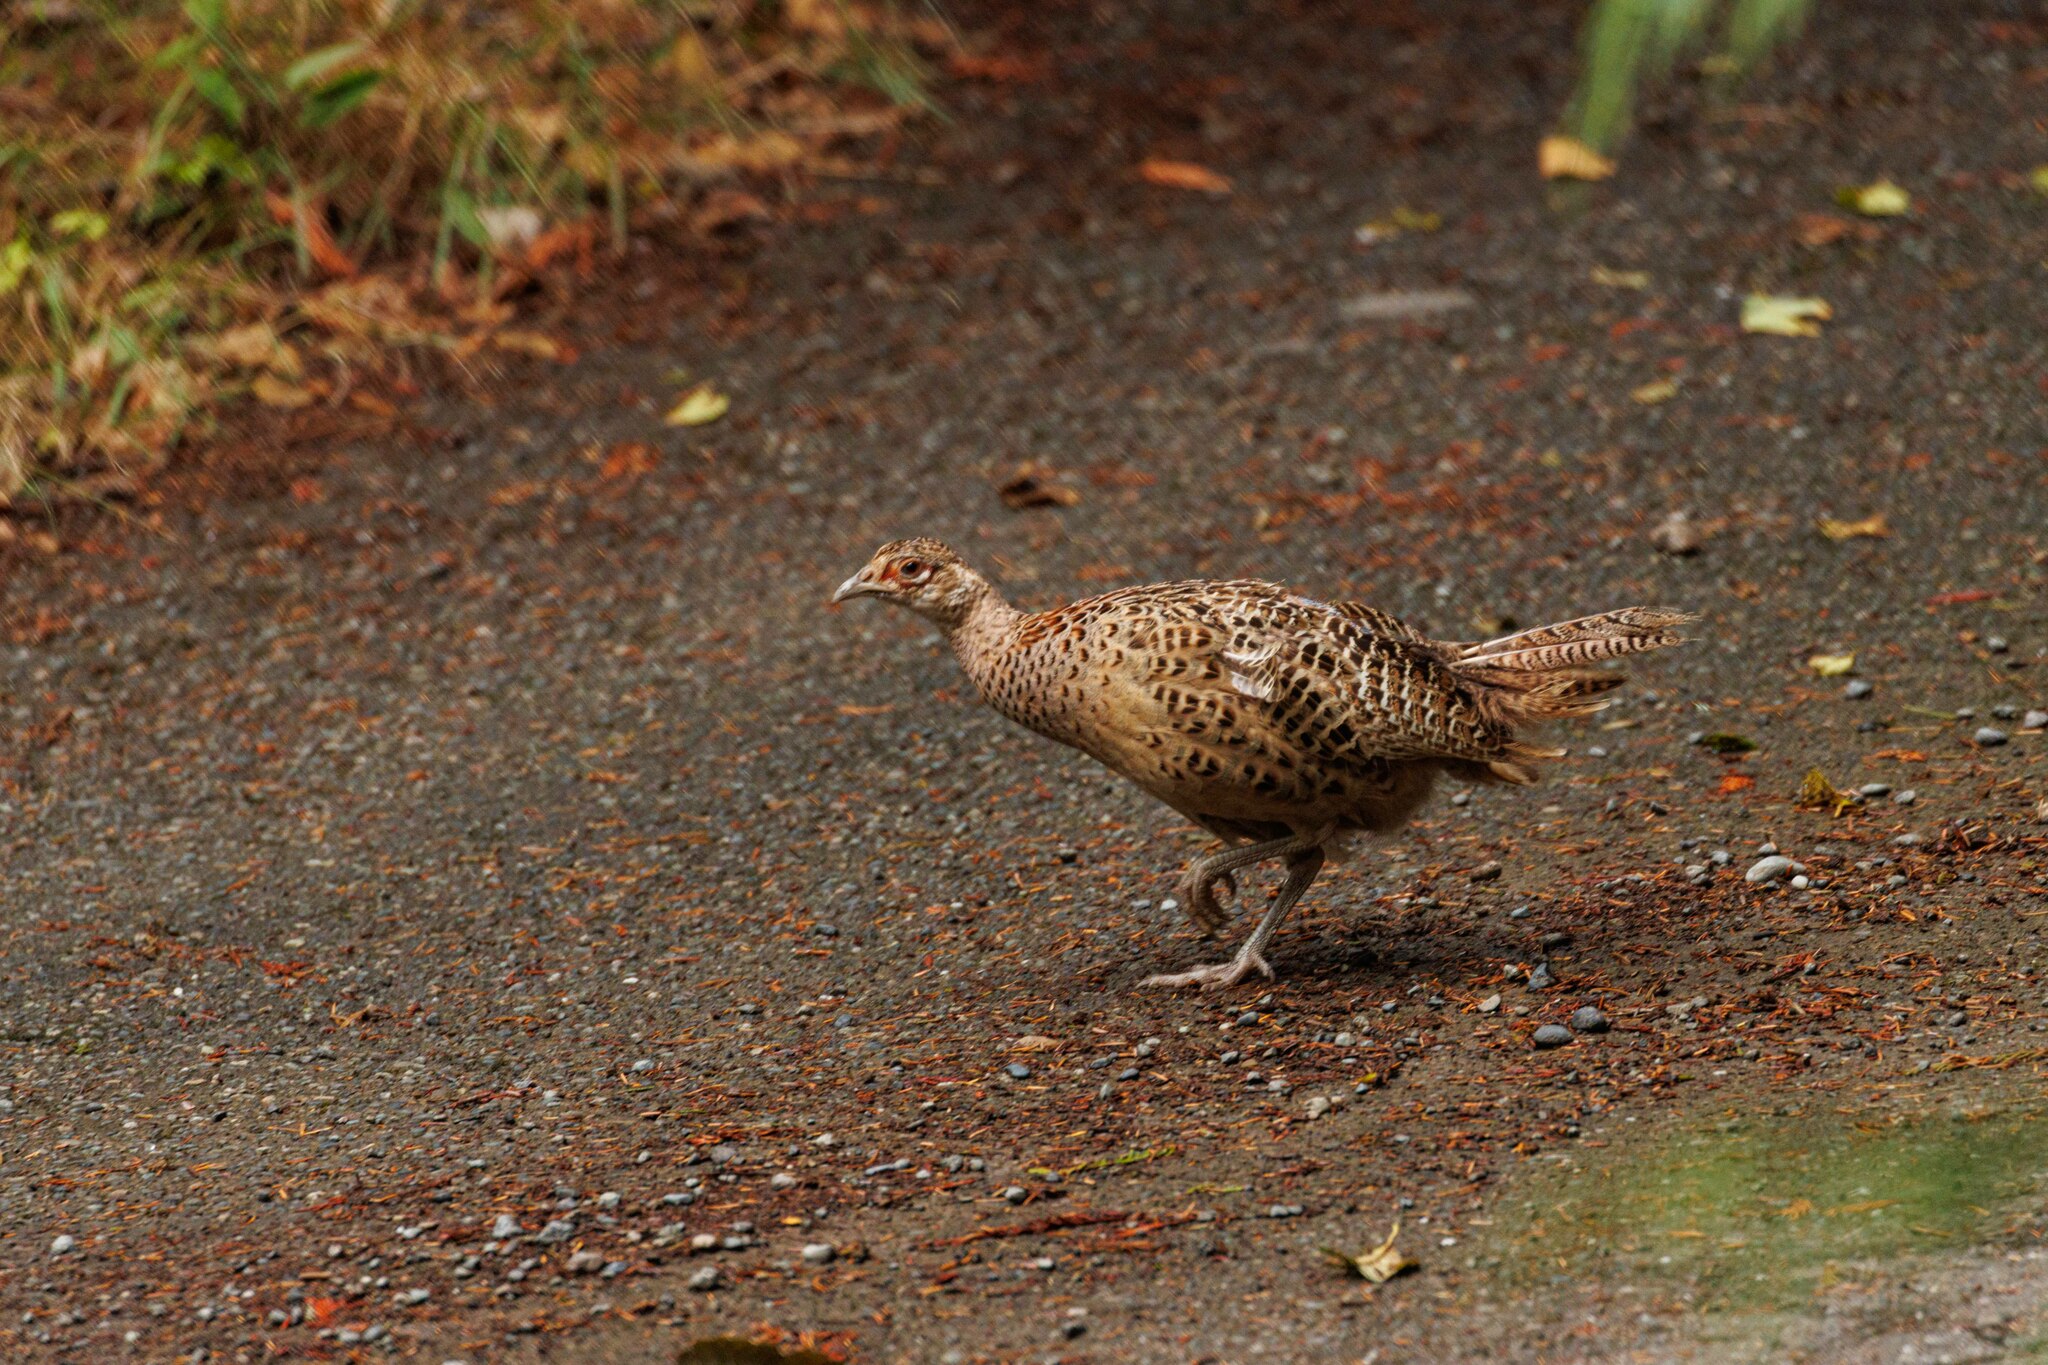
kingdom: Animalia
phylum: Chordata
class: Aves
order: Galliformes
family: Phasianidae
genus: Phasianus
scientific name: Phasianus colchicus
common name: Common pheasant
